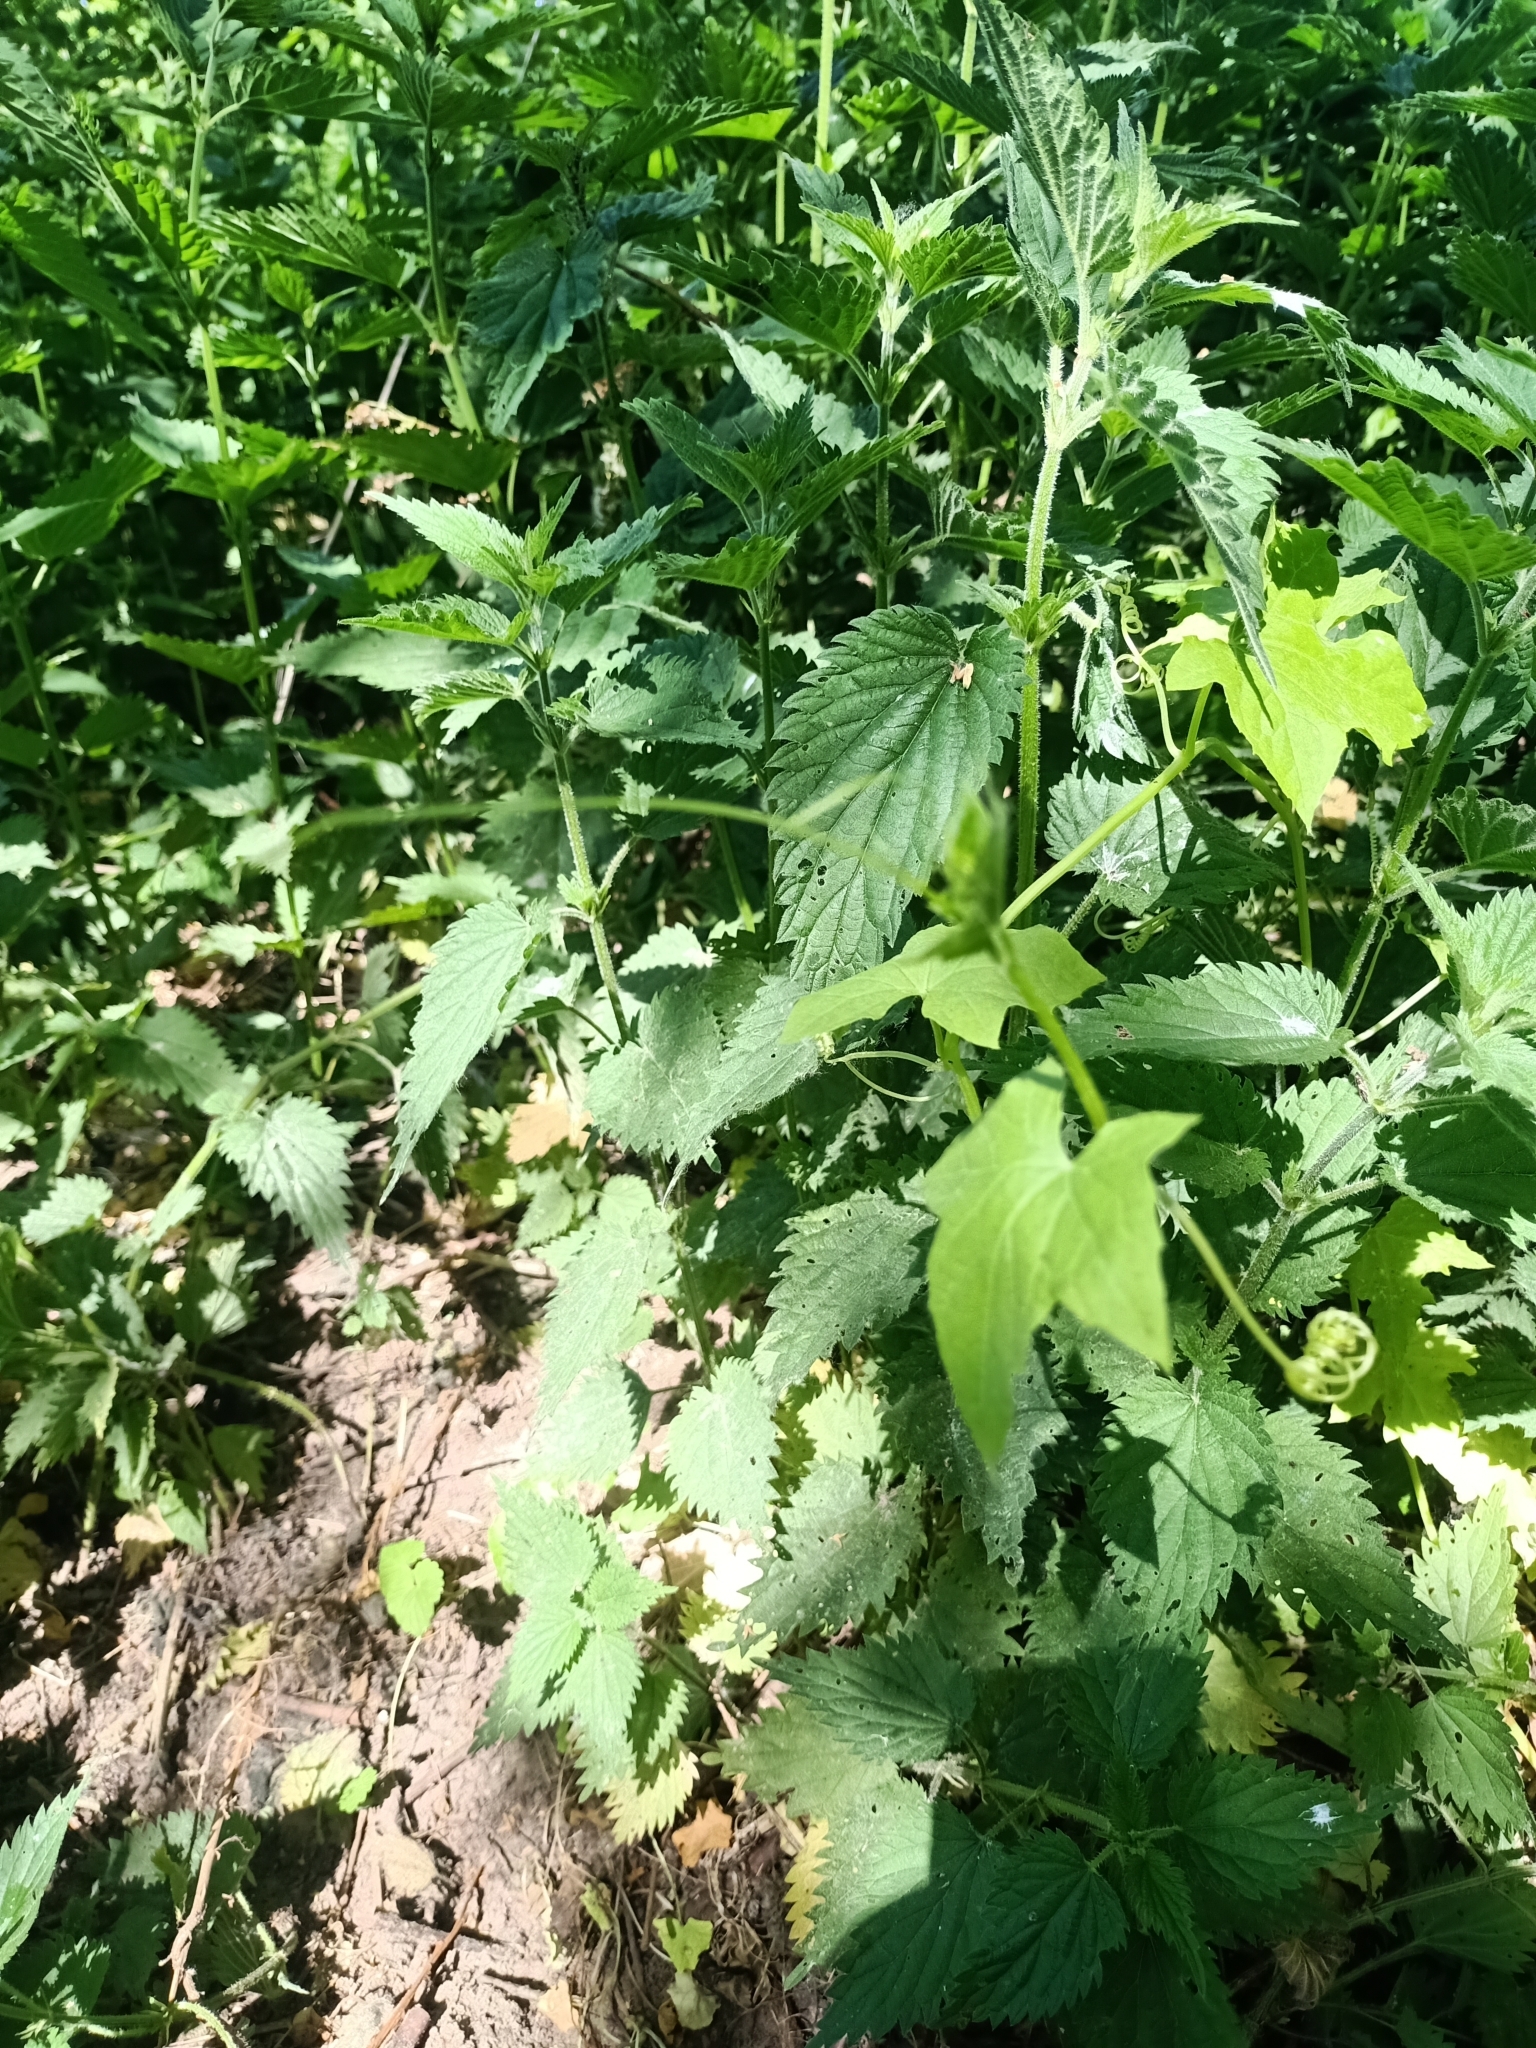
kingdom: Plantae
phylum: Tracheophyta
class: Magnoliopsida
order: Cucurbitales
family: Cucurbitaceae
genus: Echinocystis
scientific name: Echinocystis lobata
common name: Wild cucumber
